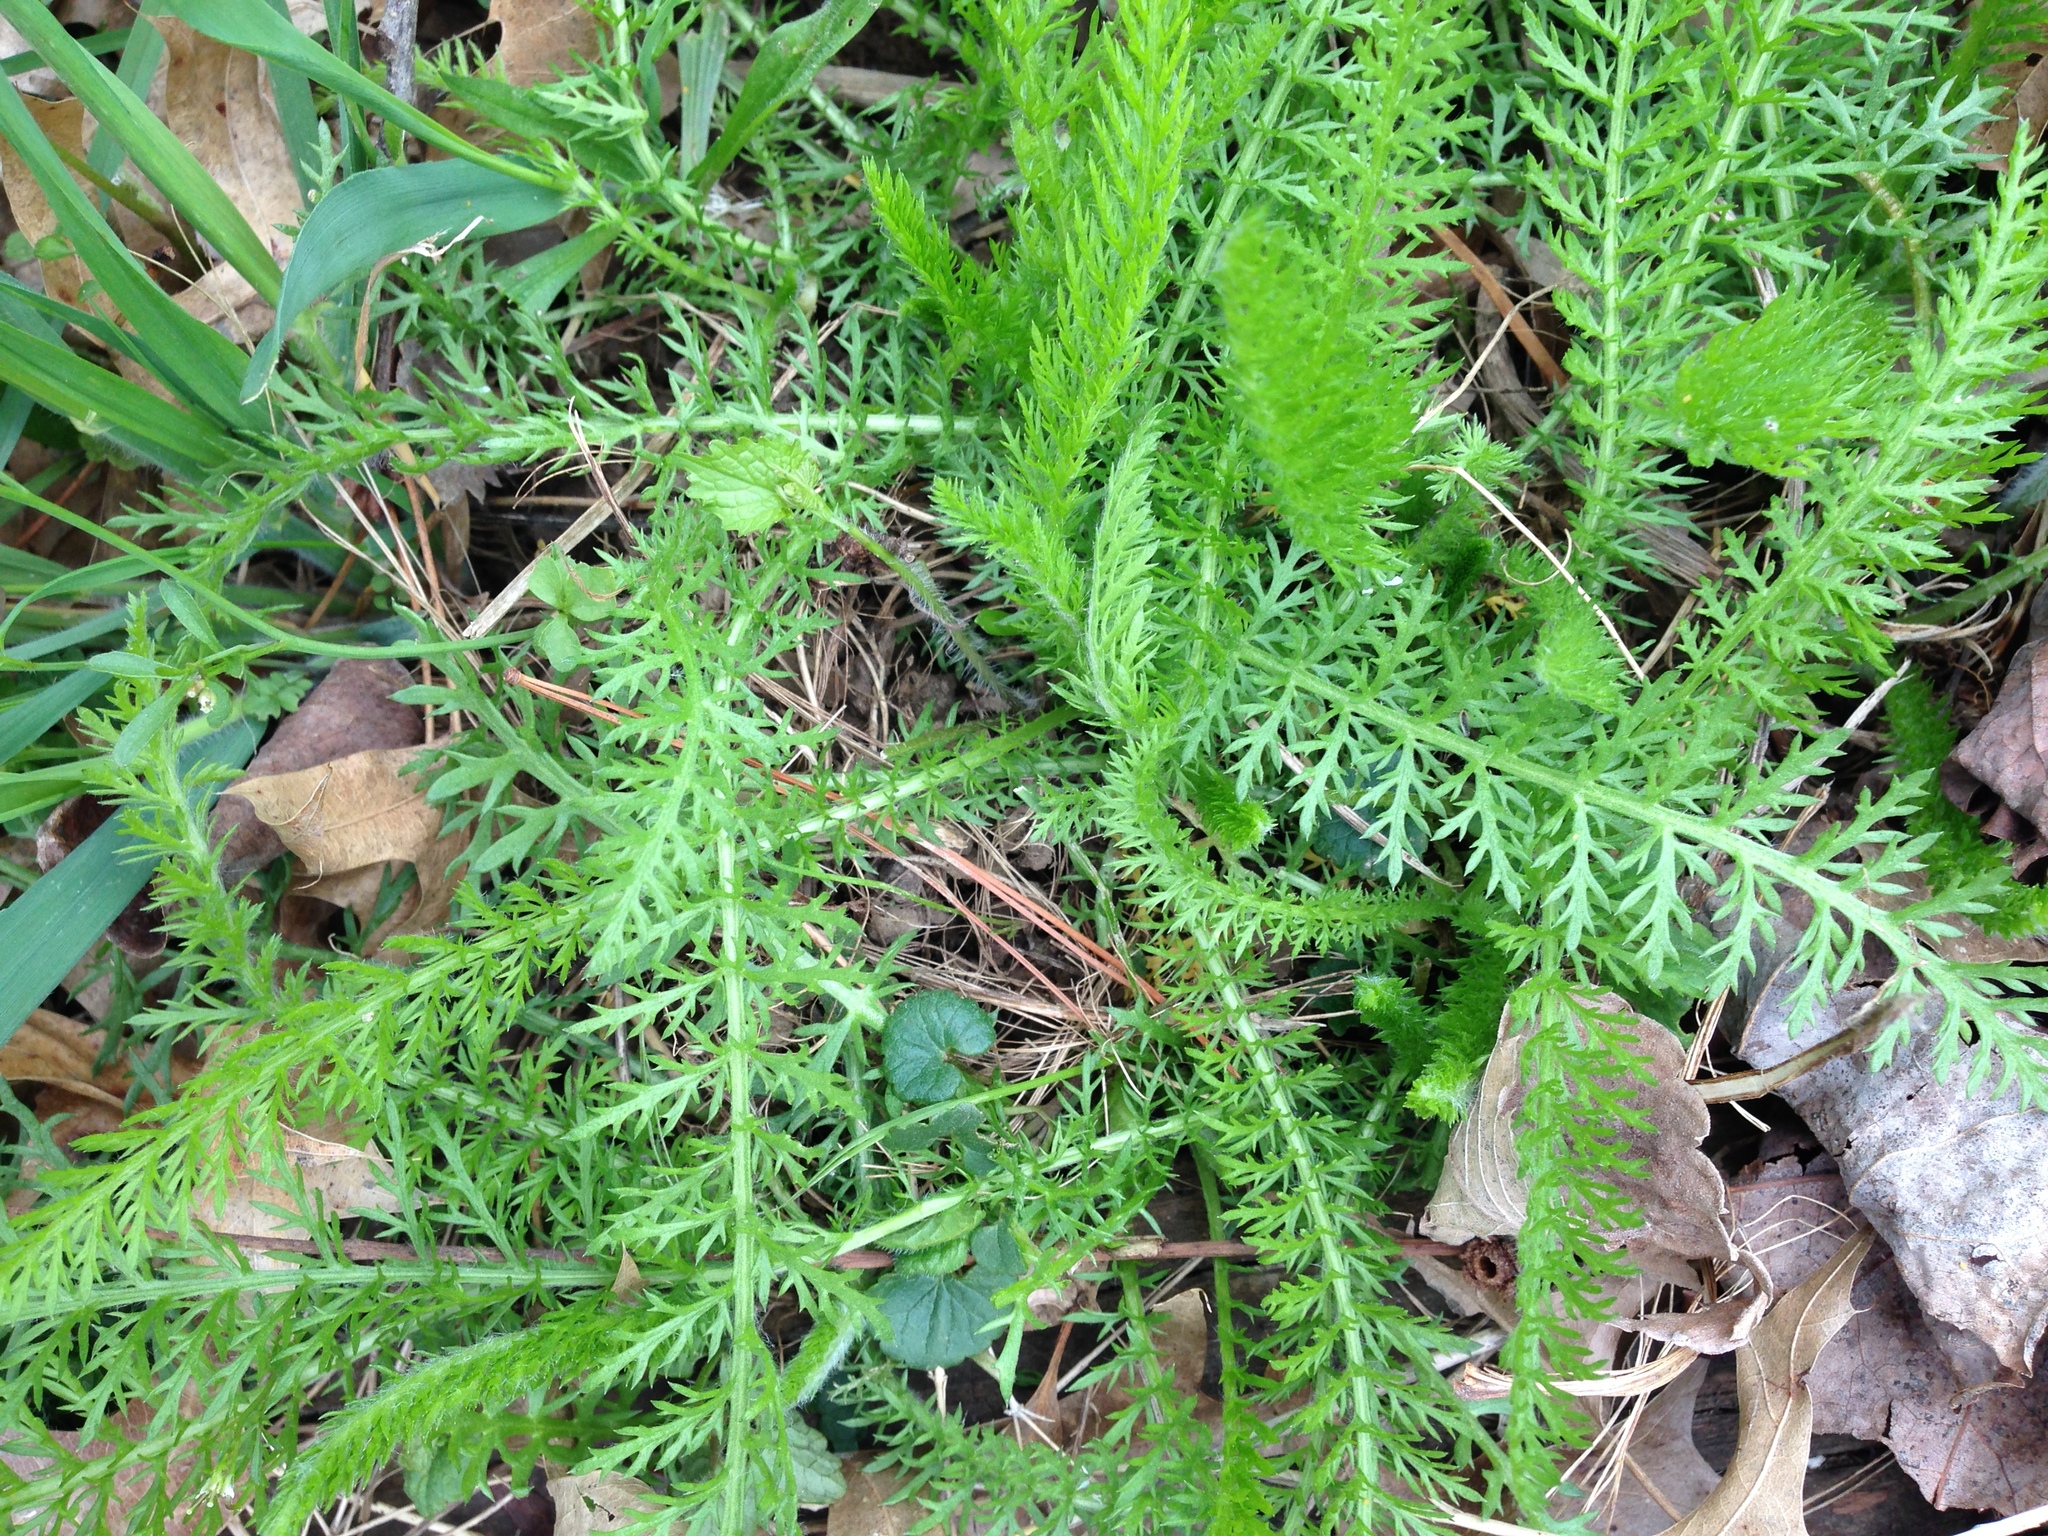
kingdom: Plantae
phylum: Tracheophyta
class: Magnoliopsida
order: Asterales
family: Asteraceae
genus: Achillea
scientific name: Achillea millefolium
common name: Yarrow
